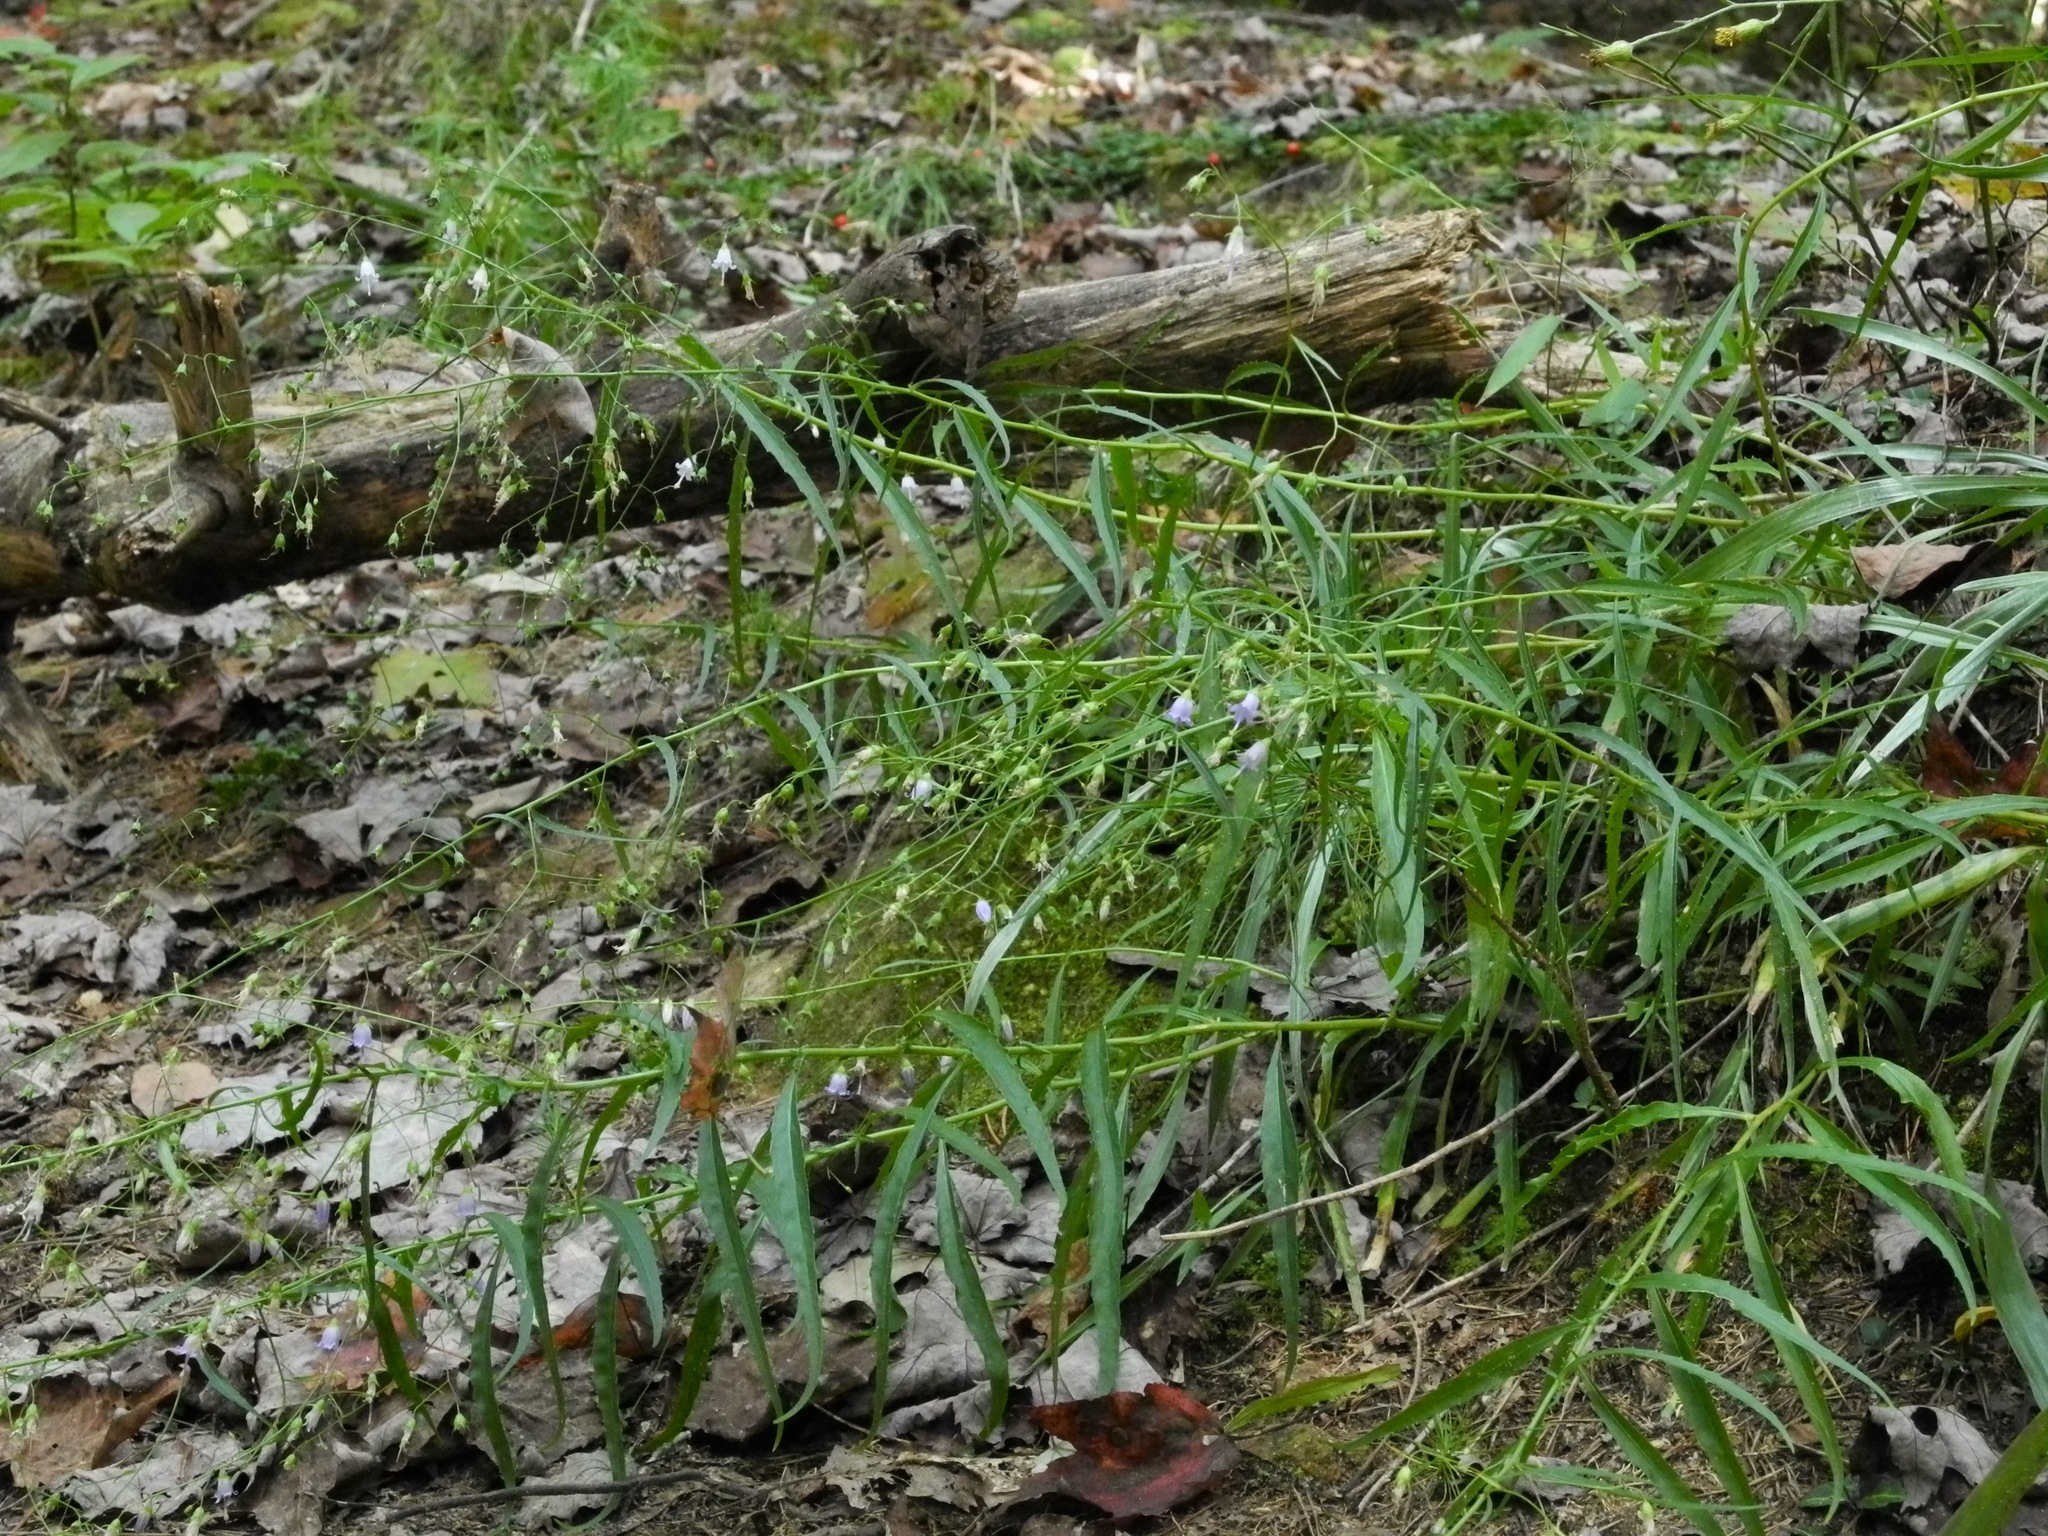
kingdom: Plantae
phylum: Tracheophyta
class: Magnoliopsida
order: Asterales
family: Campanulaceae
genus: Campanula
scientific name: Campanula divaricata
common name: Appalachian bellflower
